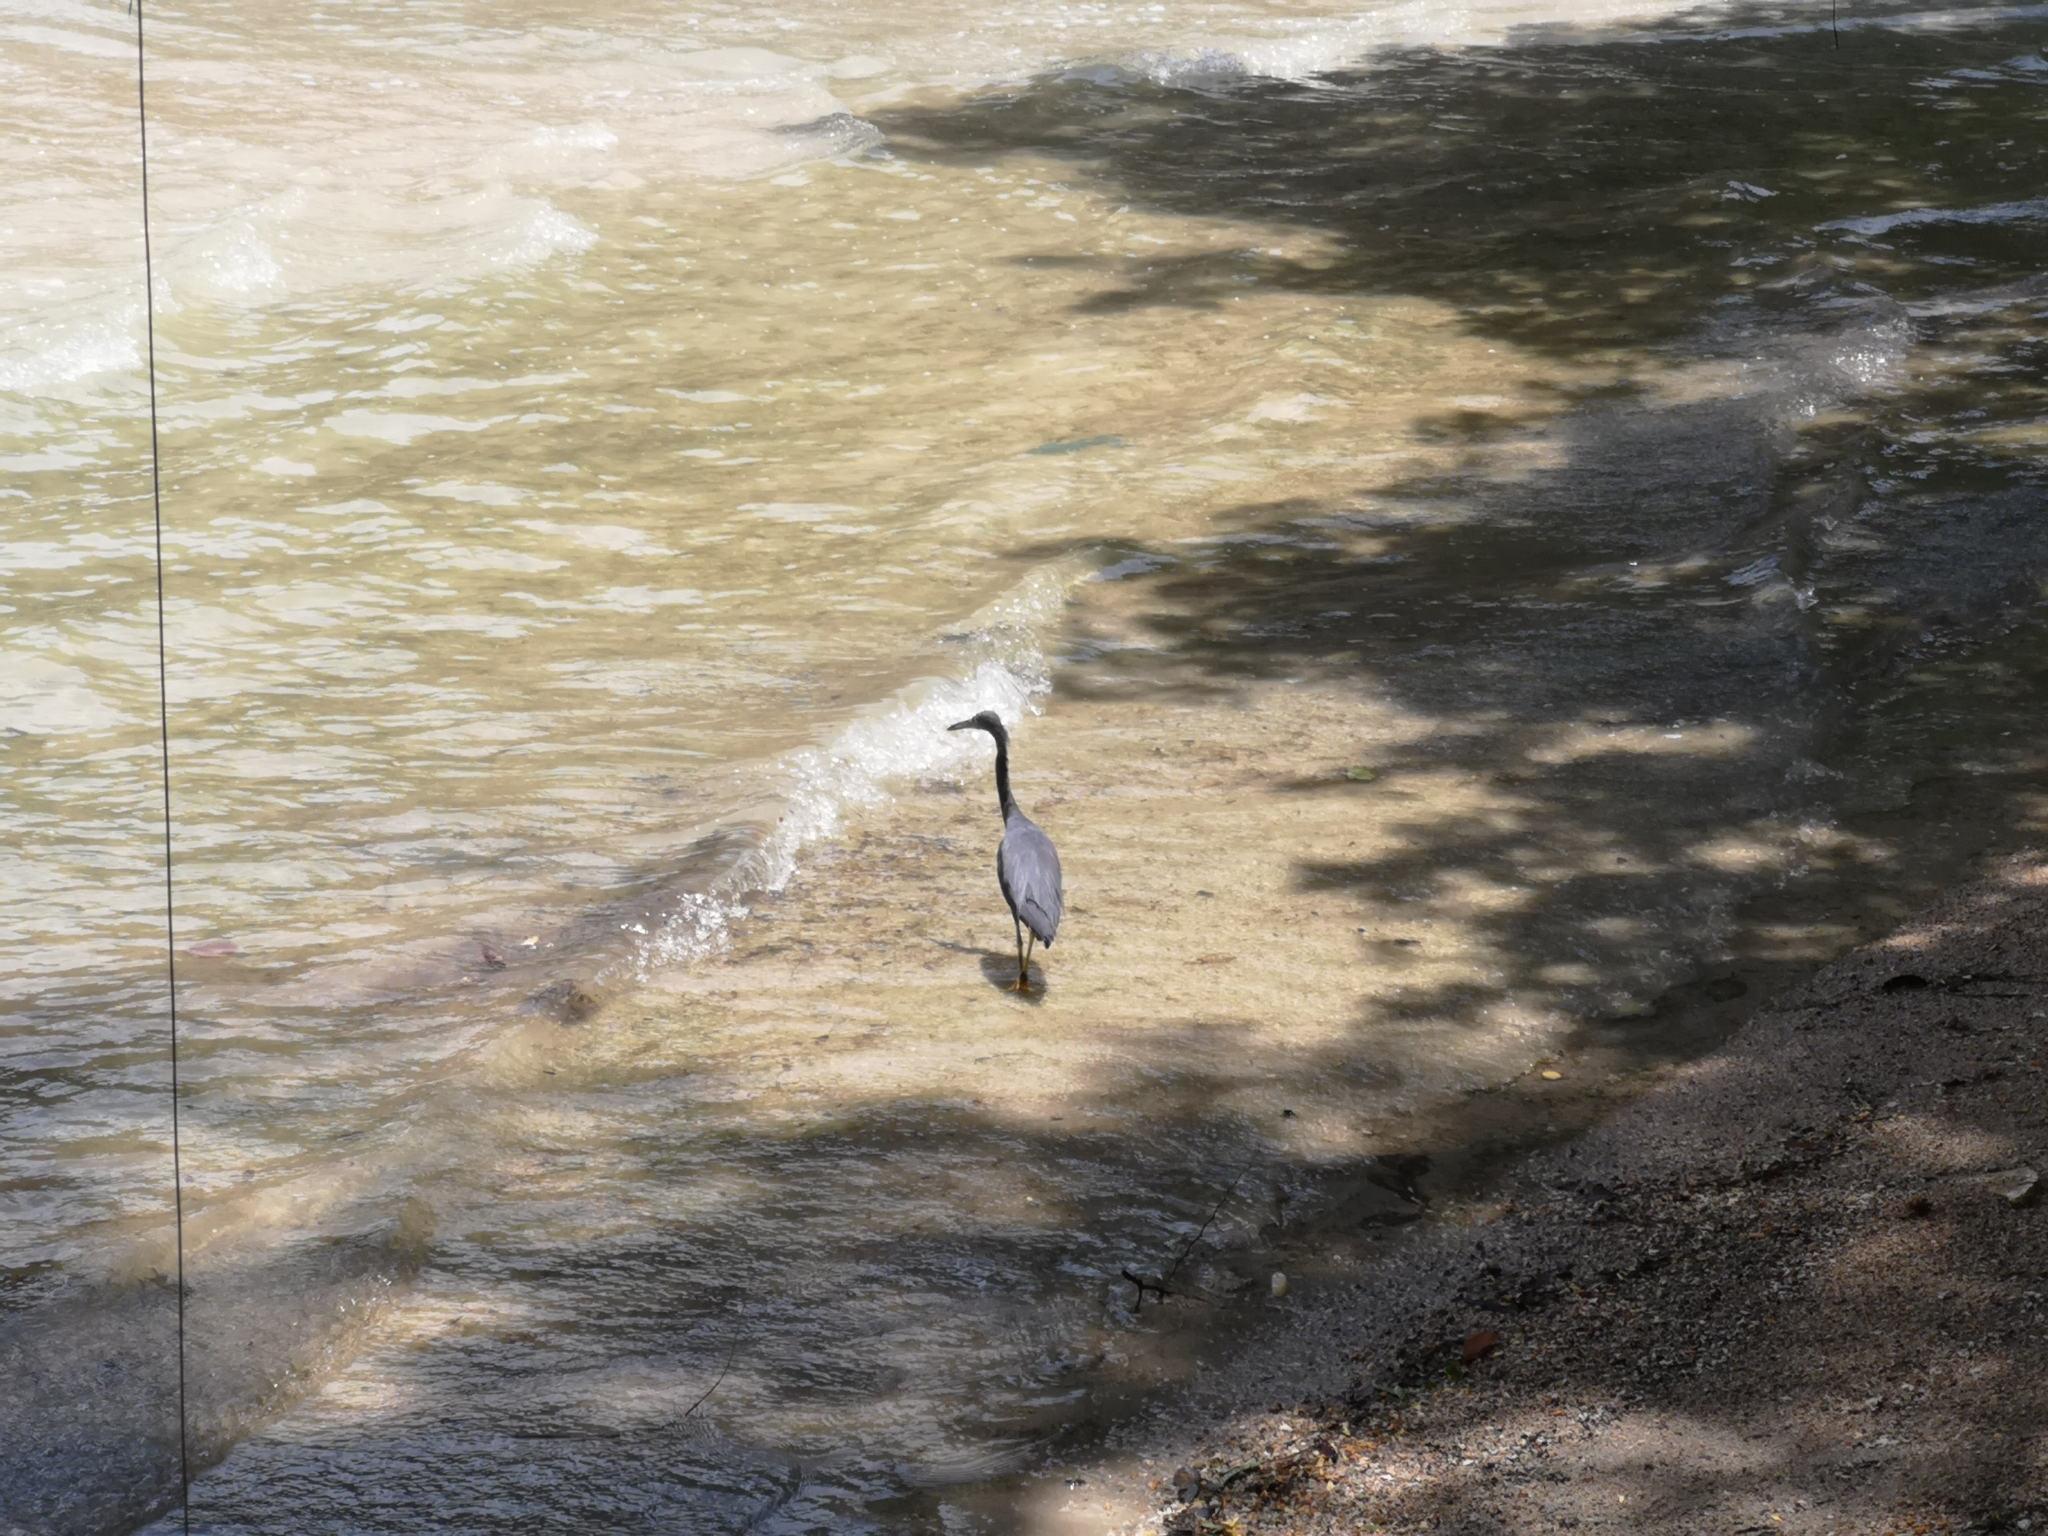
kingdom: Animalia
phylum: Chordata
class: Aves
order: Pelecaniformes
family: Ardeidae
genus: Egretta
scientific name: Egretta sacra
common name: Pacific reef heron
